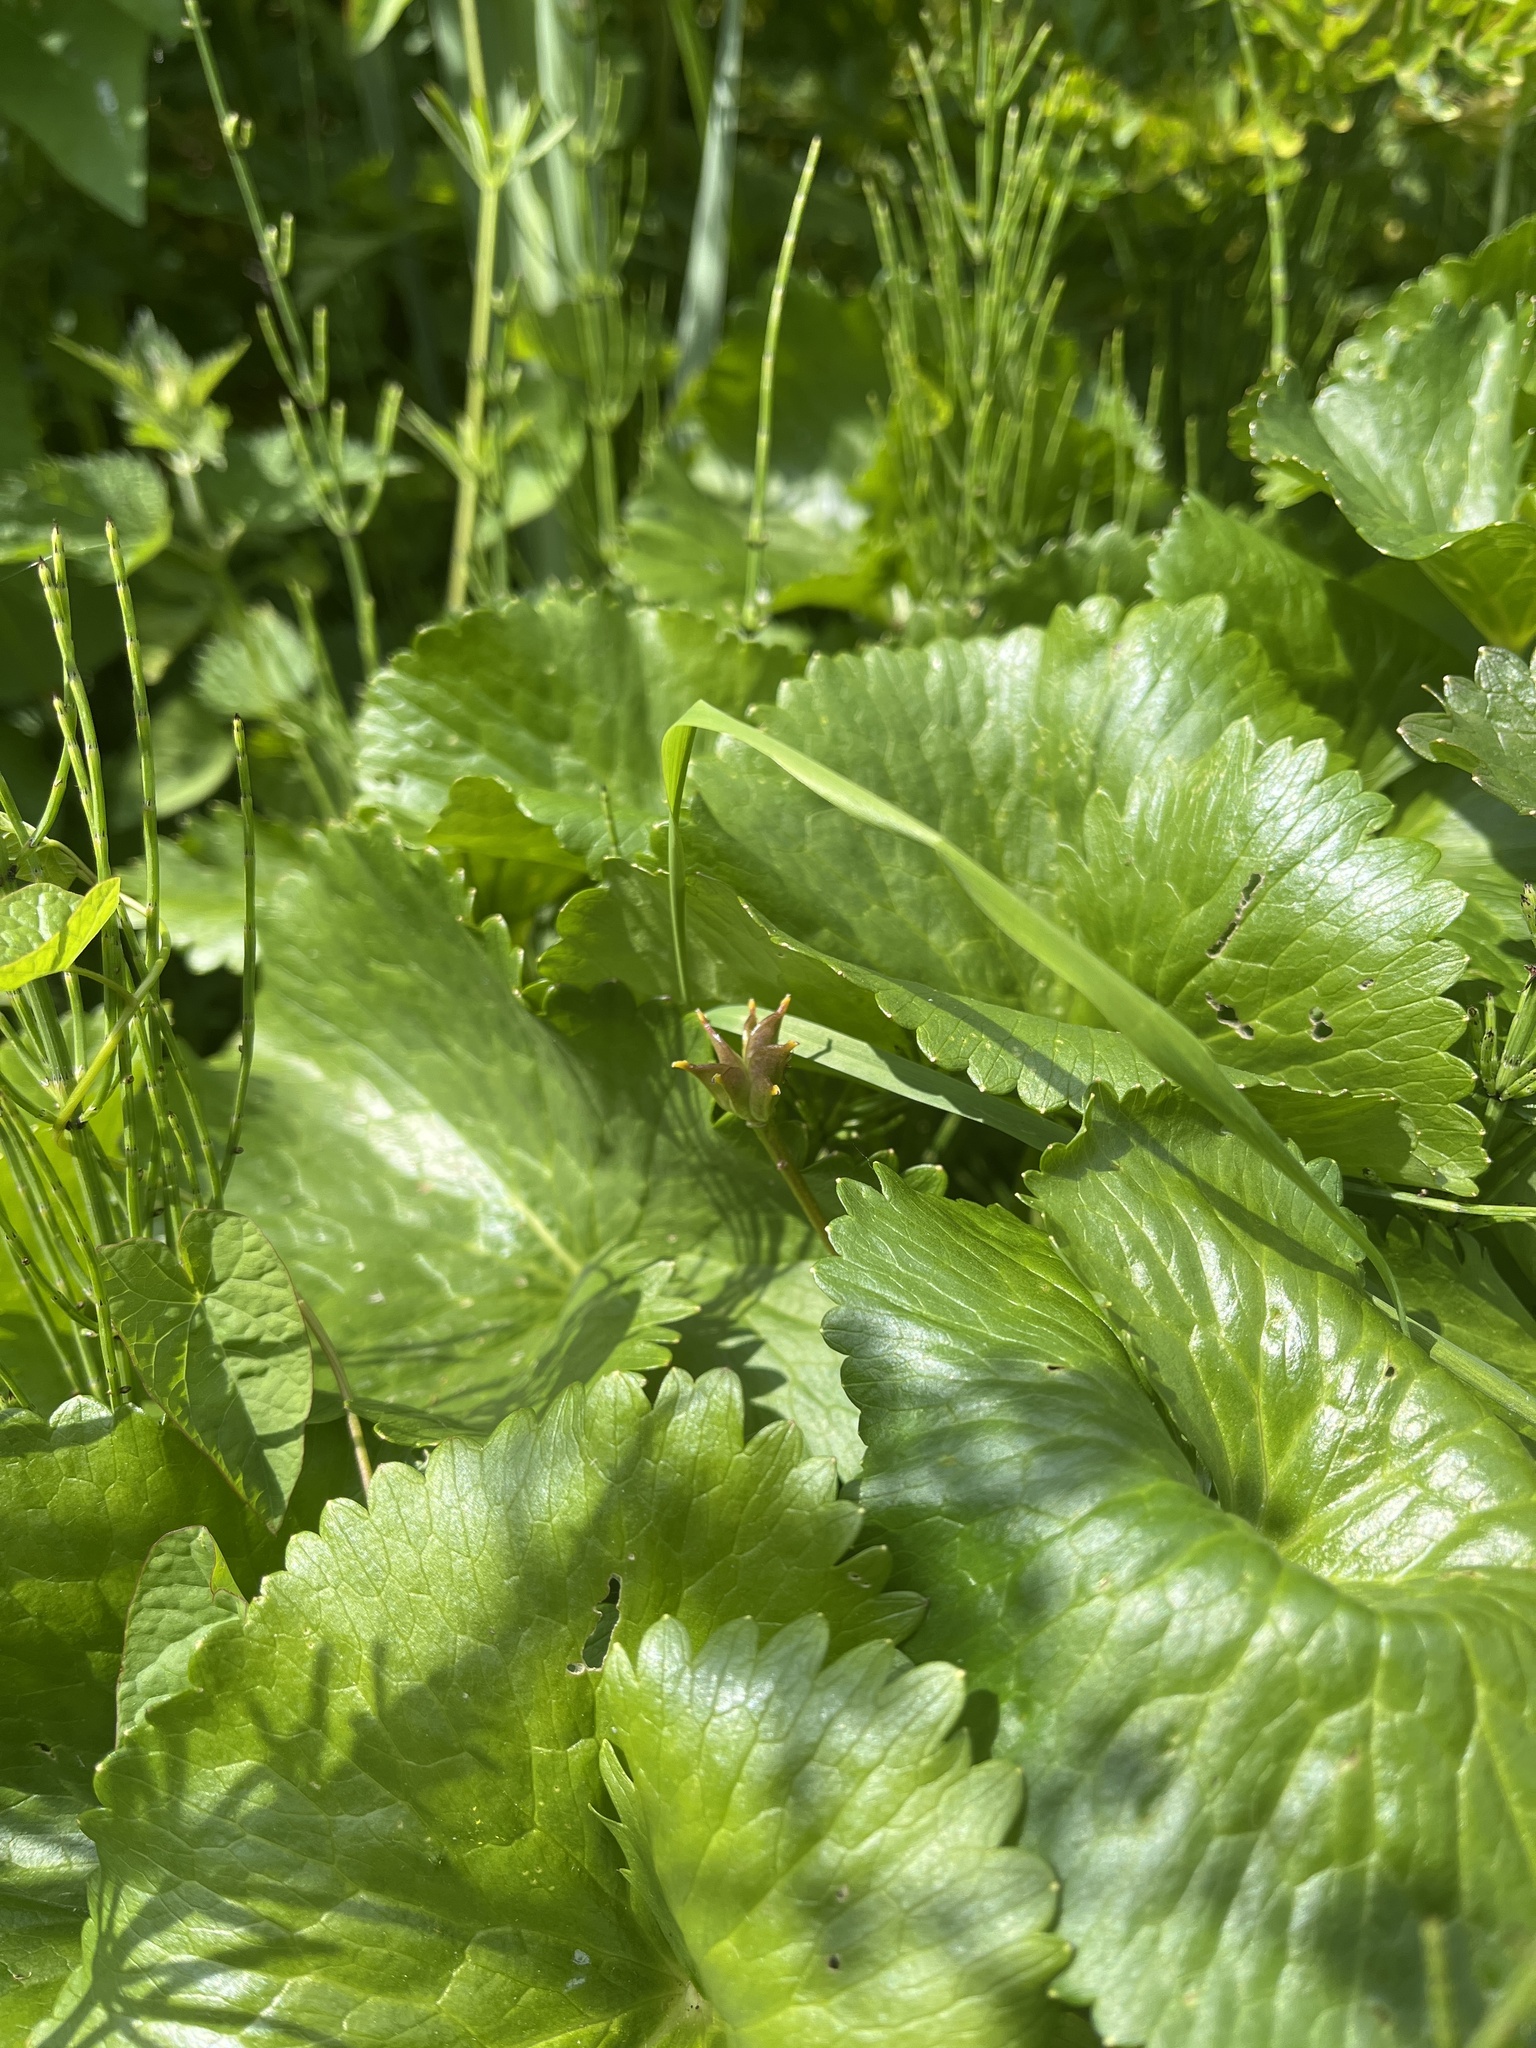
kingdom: Plantae
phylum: Tracheophyta
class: Magnoliopsida
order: Ranunculales
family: Ranunculaceae
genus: Caltha
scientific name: Caltha palustris
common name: Marsh marigold
